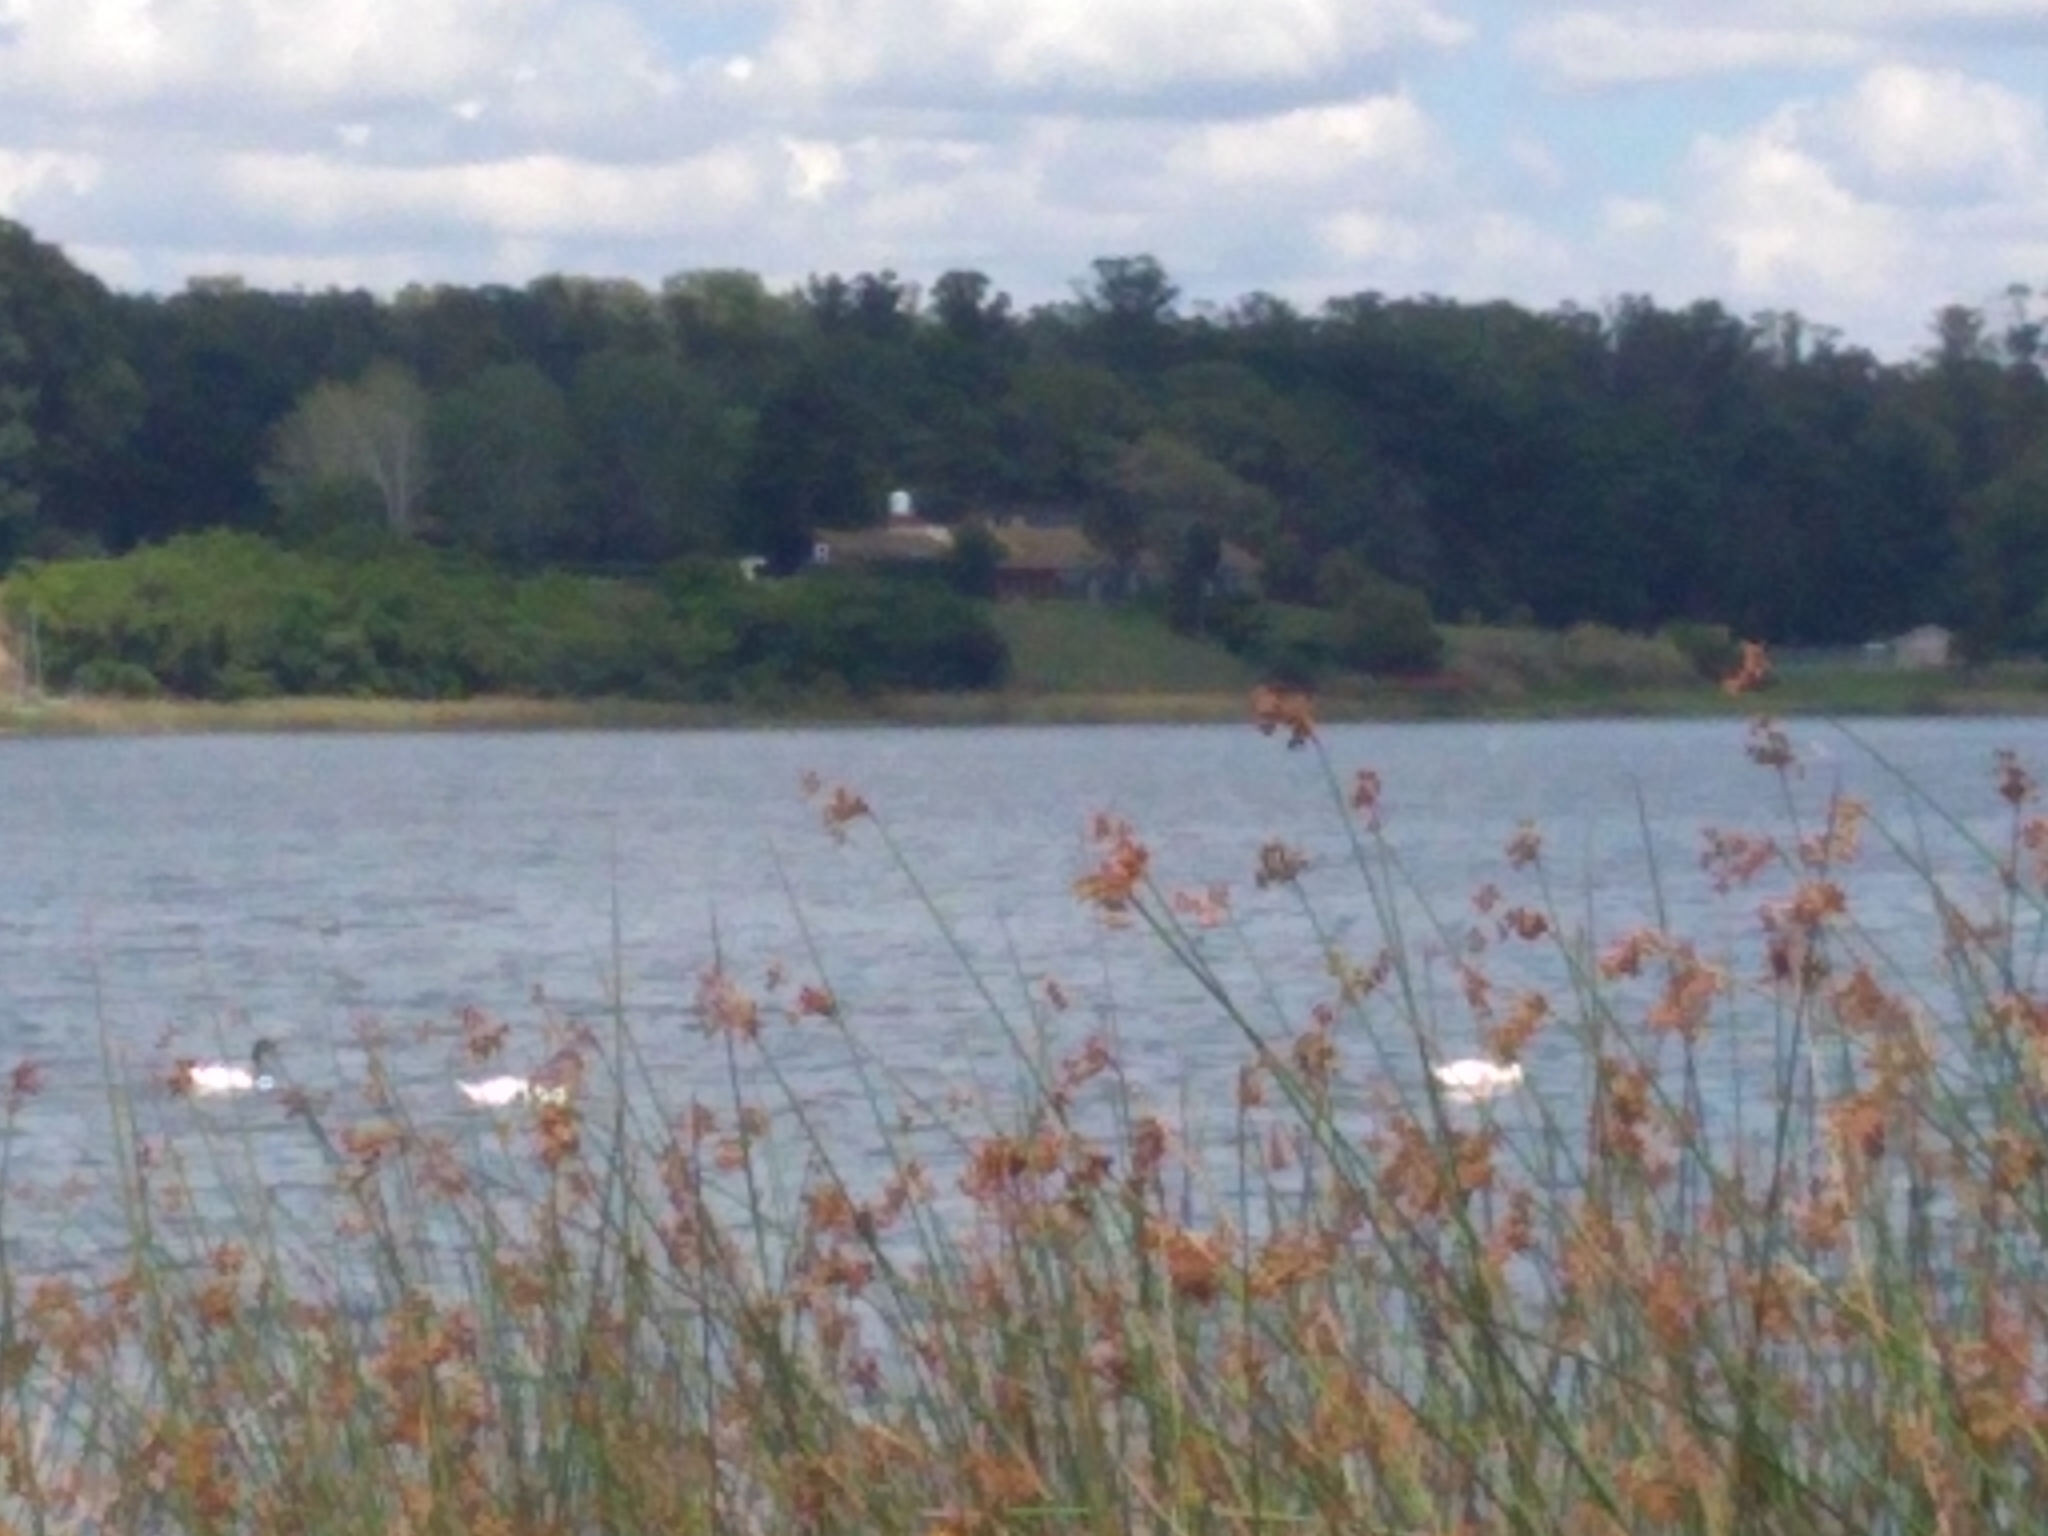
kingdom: Animalia
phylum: Chordata
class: Aves
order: Anseriformes
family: Anatidae
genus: Cygnus
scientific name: Cygnus melancoryphus
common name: Black-necked swan
